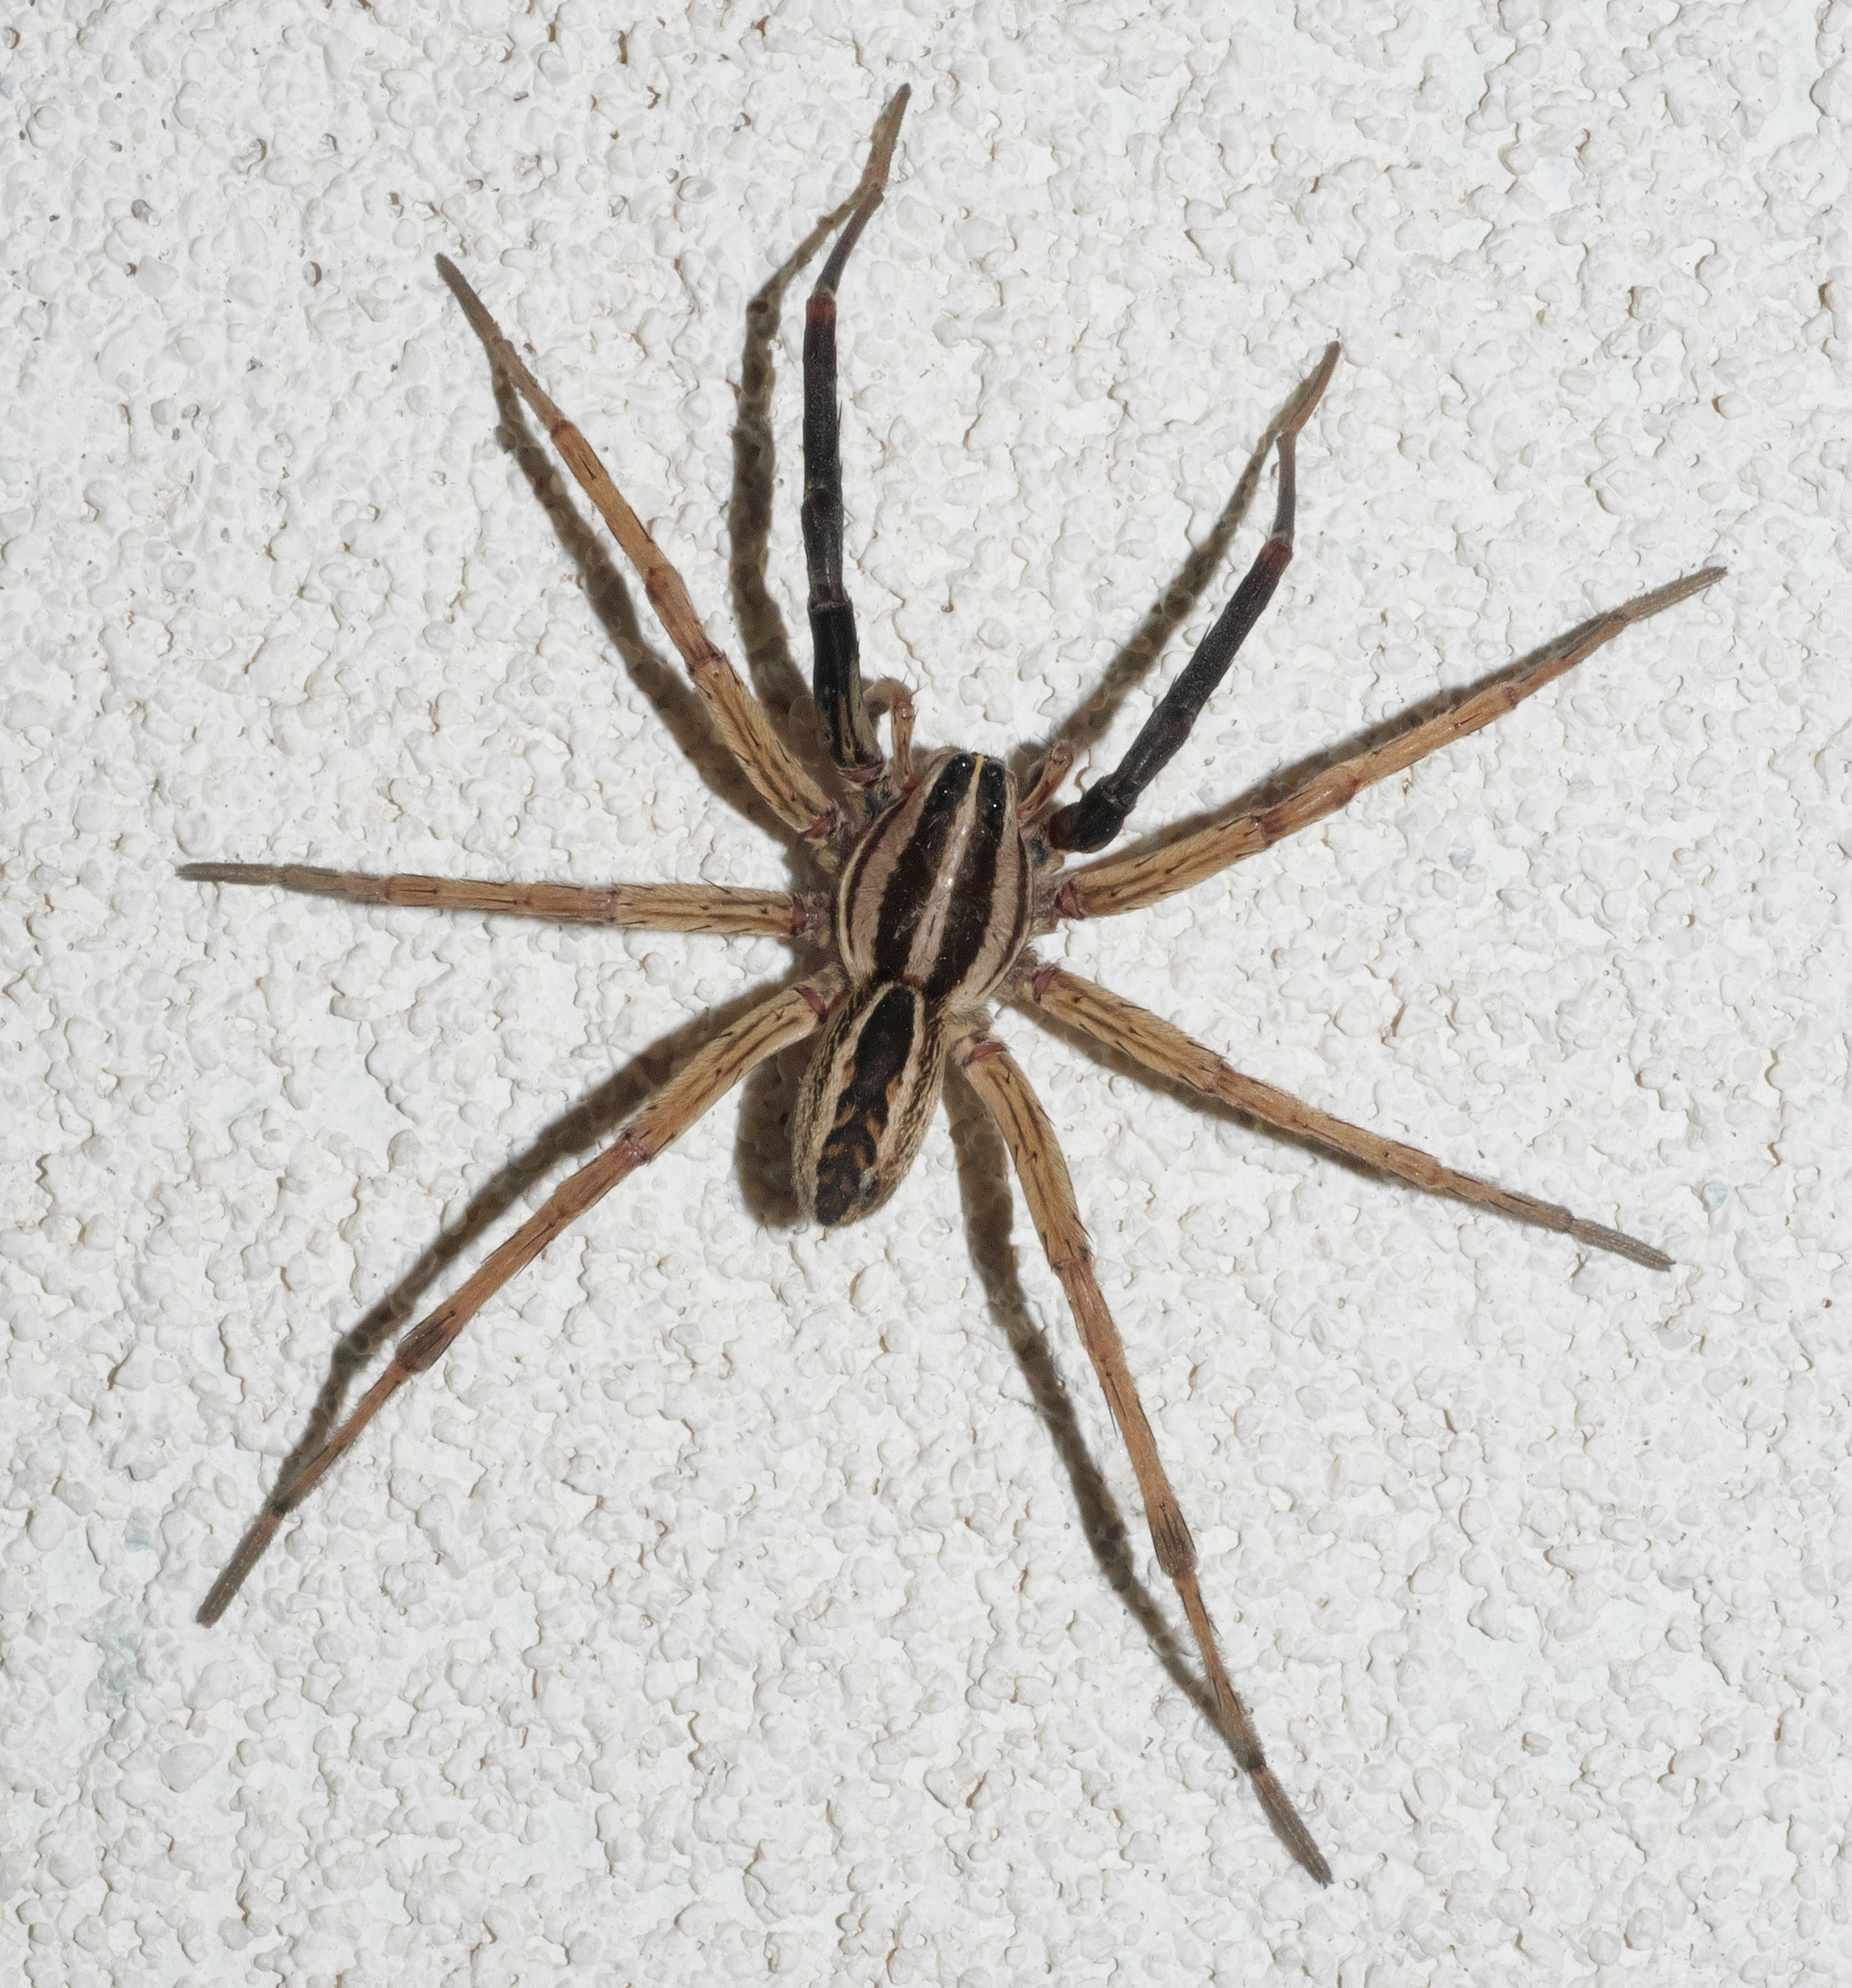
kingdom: Animalia
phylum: Arthropoda
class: Arachnida
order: Araneae
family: Lycosidae
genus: Rabidosa
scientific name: Rabidosa rabida
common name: Rabid wolf spider
